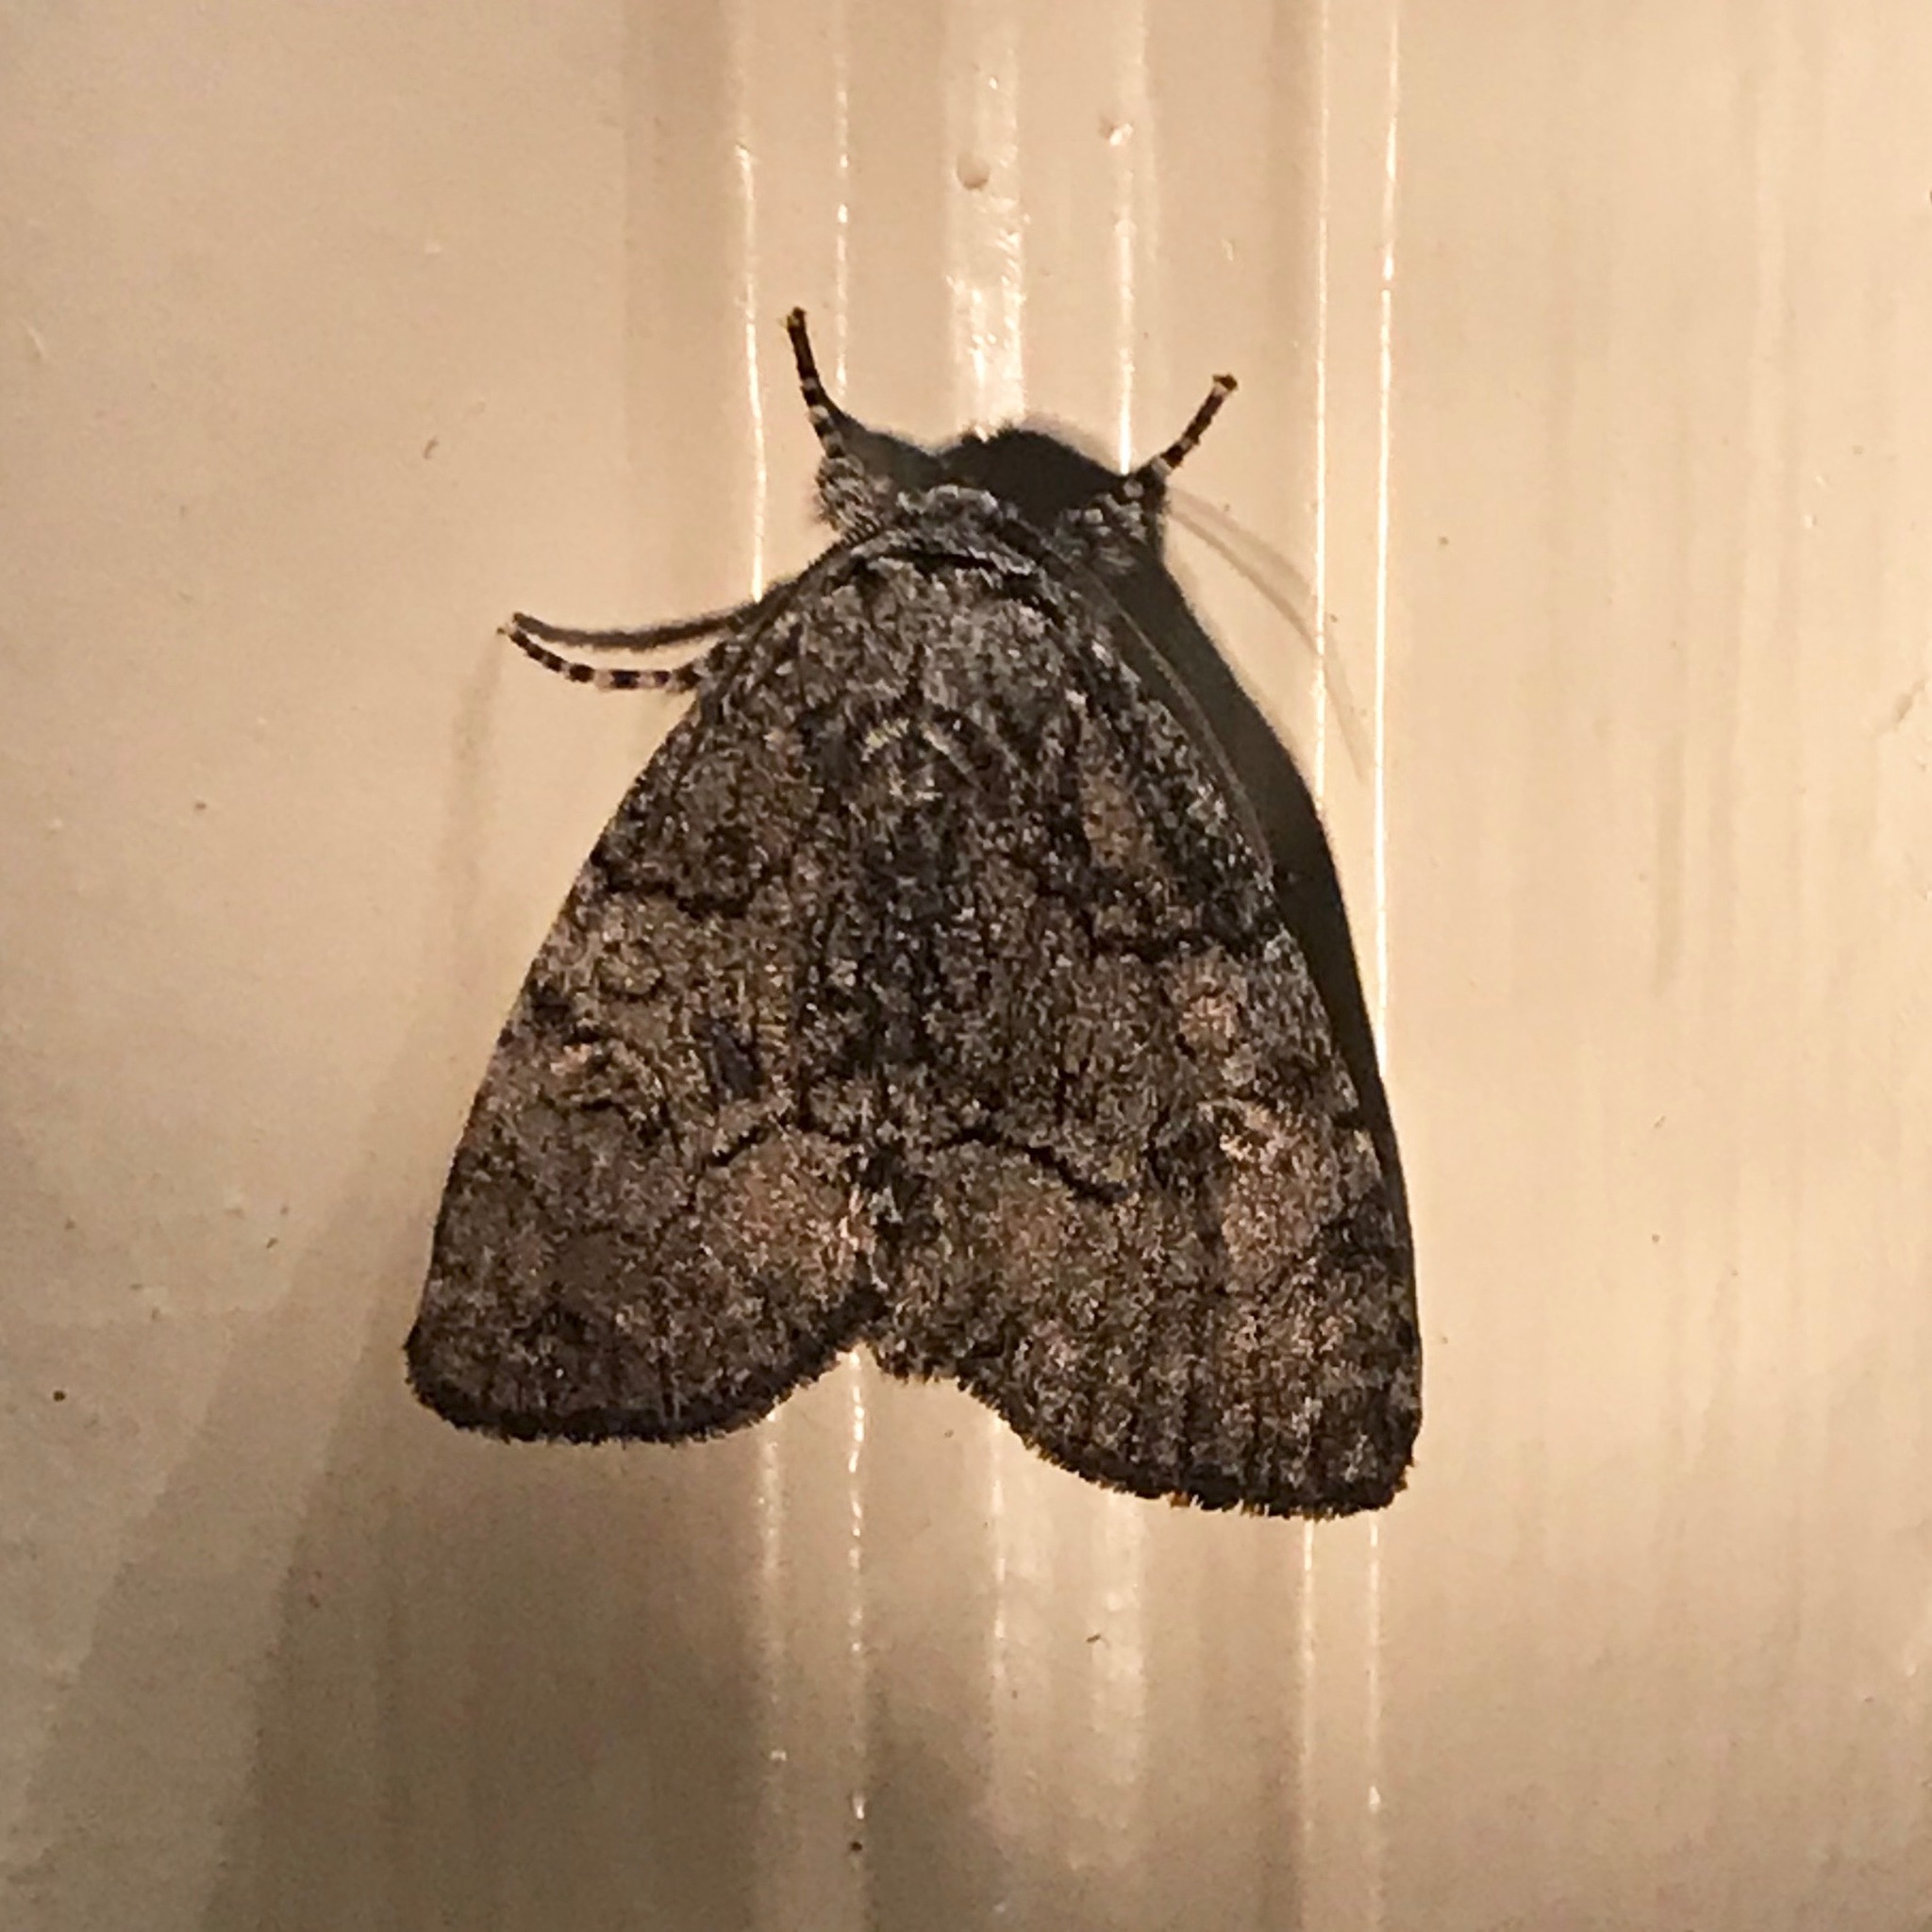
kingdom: Animalia
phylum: Arthropoda
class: Insecta
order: Lepidoptera
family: Noctuidae
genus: Raphia
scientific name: Raphia frater
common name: Brother
